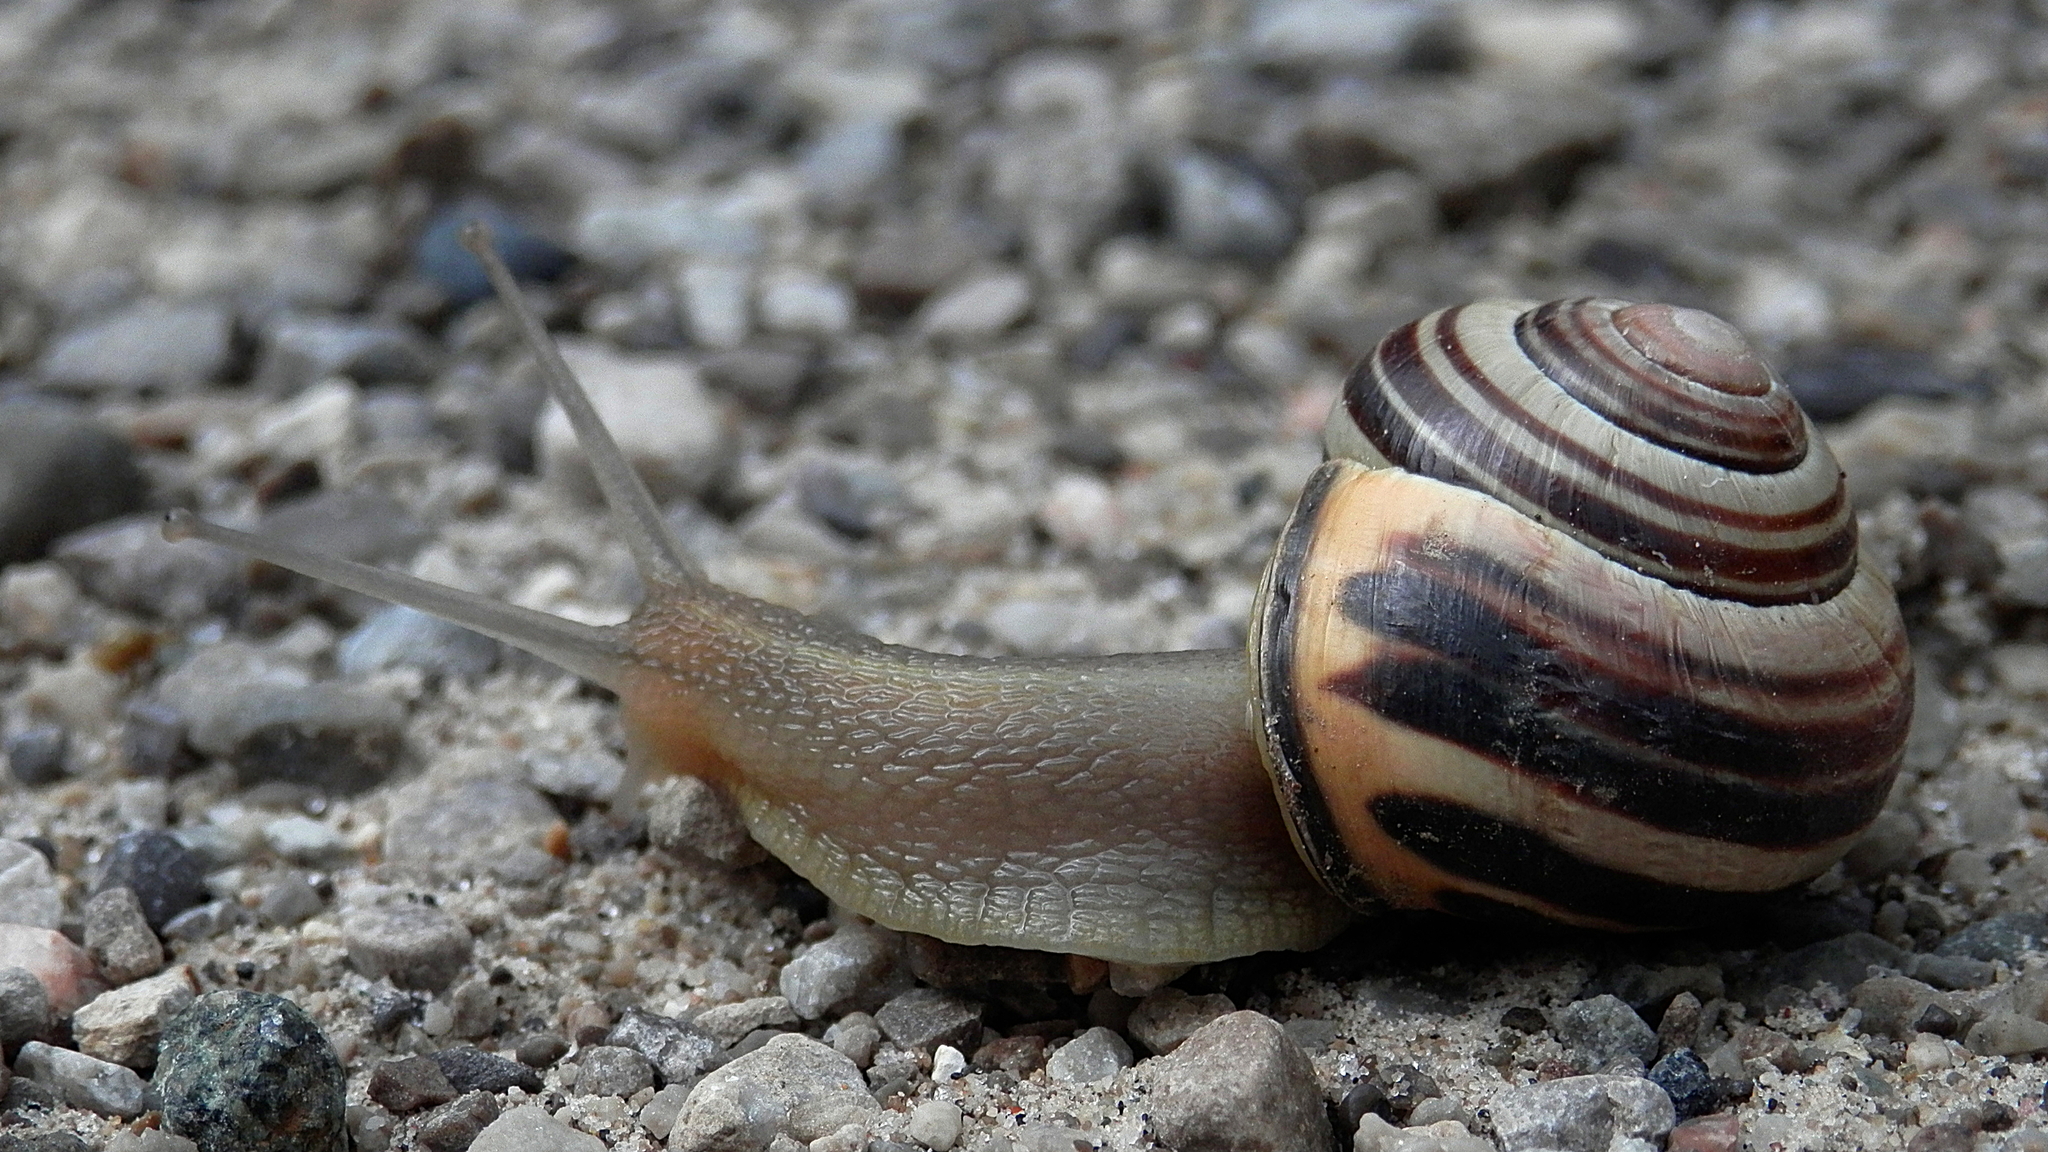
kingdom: Animalia
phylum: Mollusca
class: Gastropoda
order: Stylommatophora
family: Helicidae
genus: Cepaea
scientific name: Cepaea nemoralis
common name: Grovesnail
